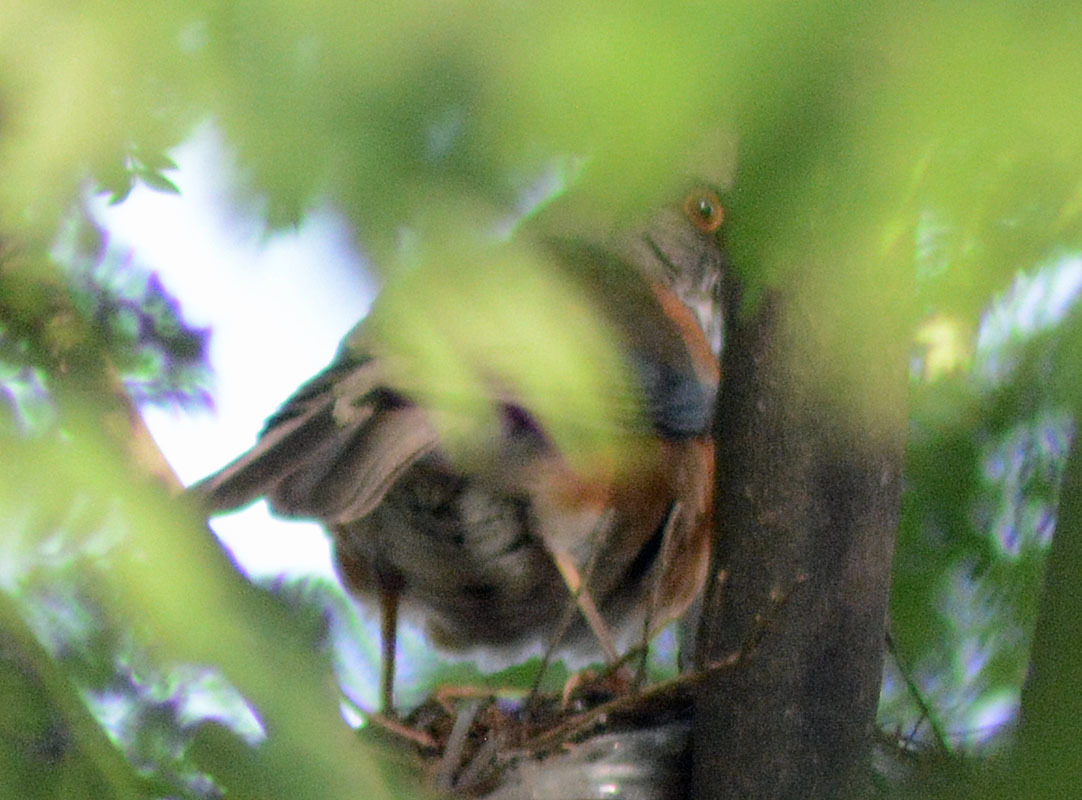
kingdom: Animalia
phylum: Chordata
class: Aves
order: Passeriformes
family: Turdidae
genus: Turdus
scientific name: Turdus rufopalliatus
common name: Rufous-backed robin
